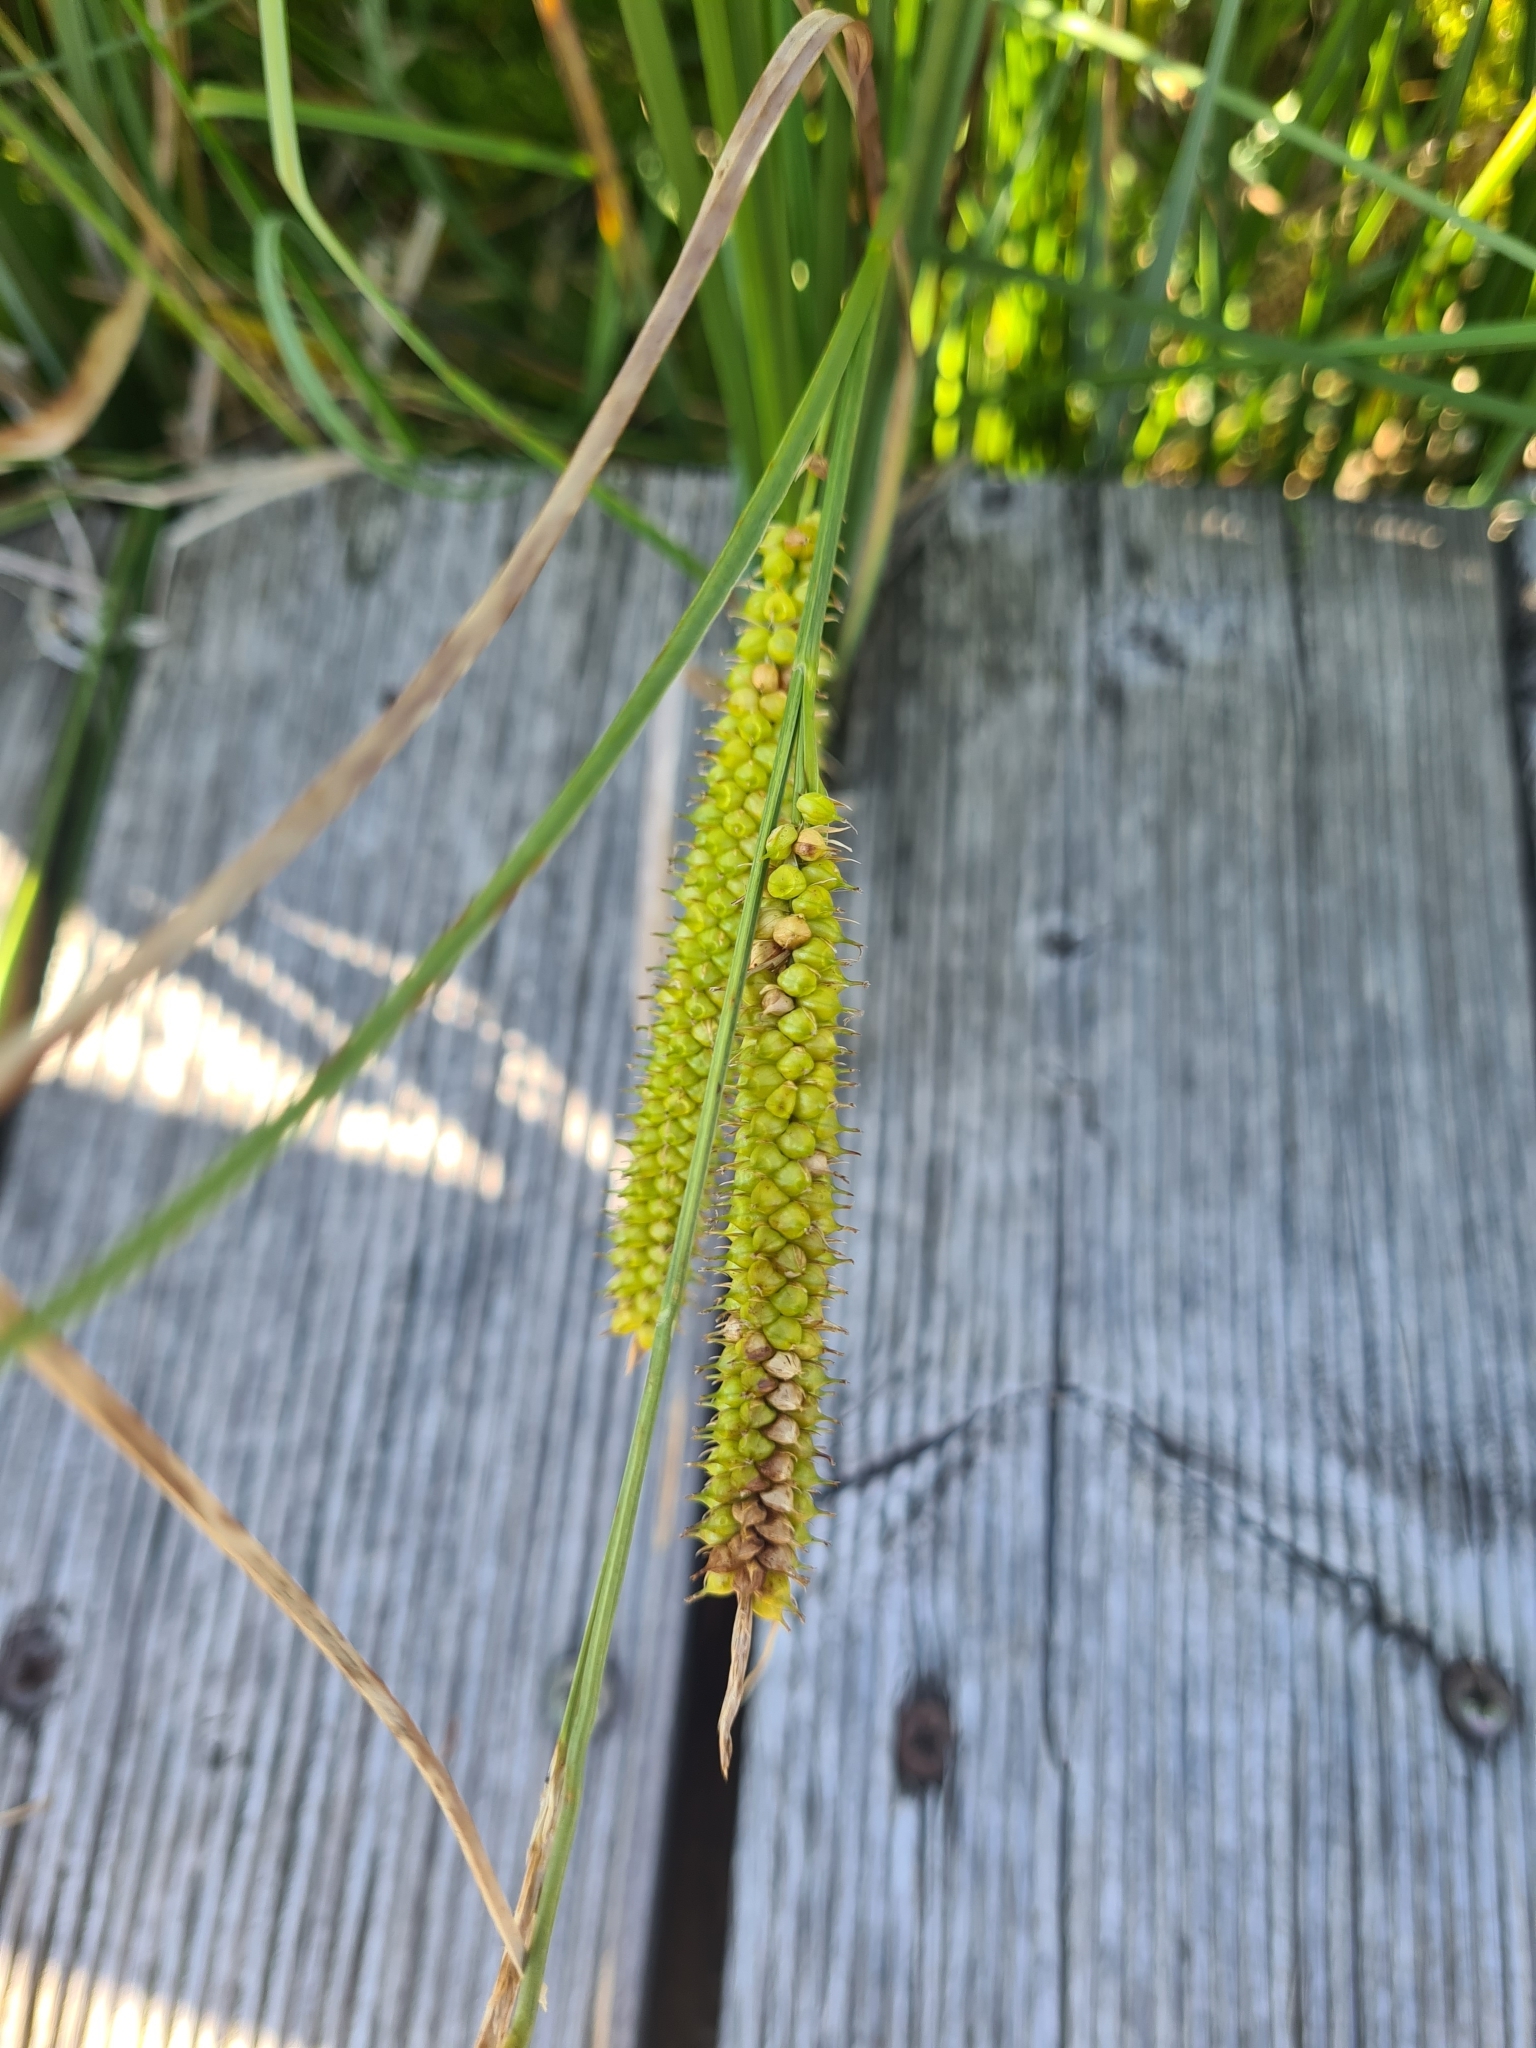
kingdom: Plantae
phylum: Tracheophyta
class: Liliopsida
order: Poales
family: Cyperaceae
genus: Carex
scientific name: Carex rostrata
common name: Bottle sedge
